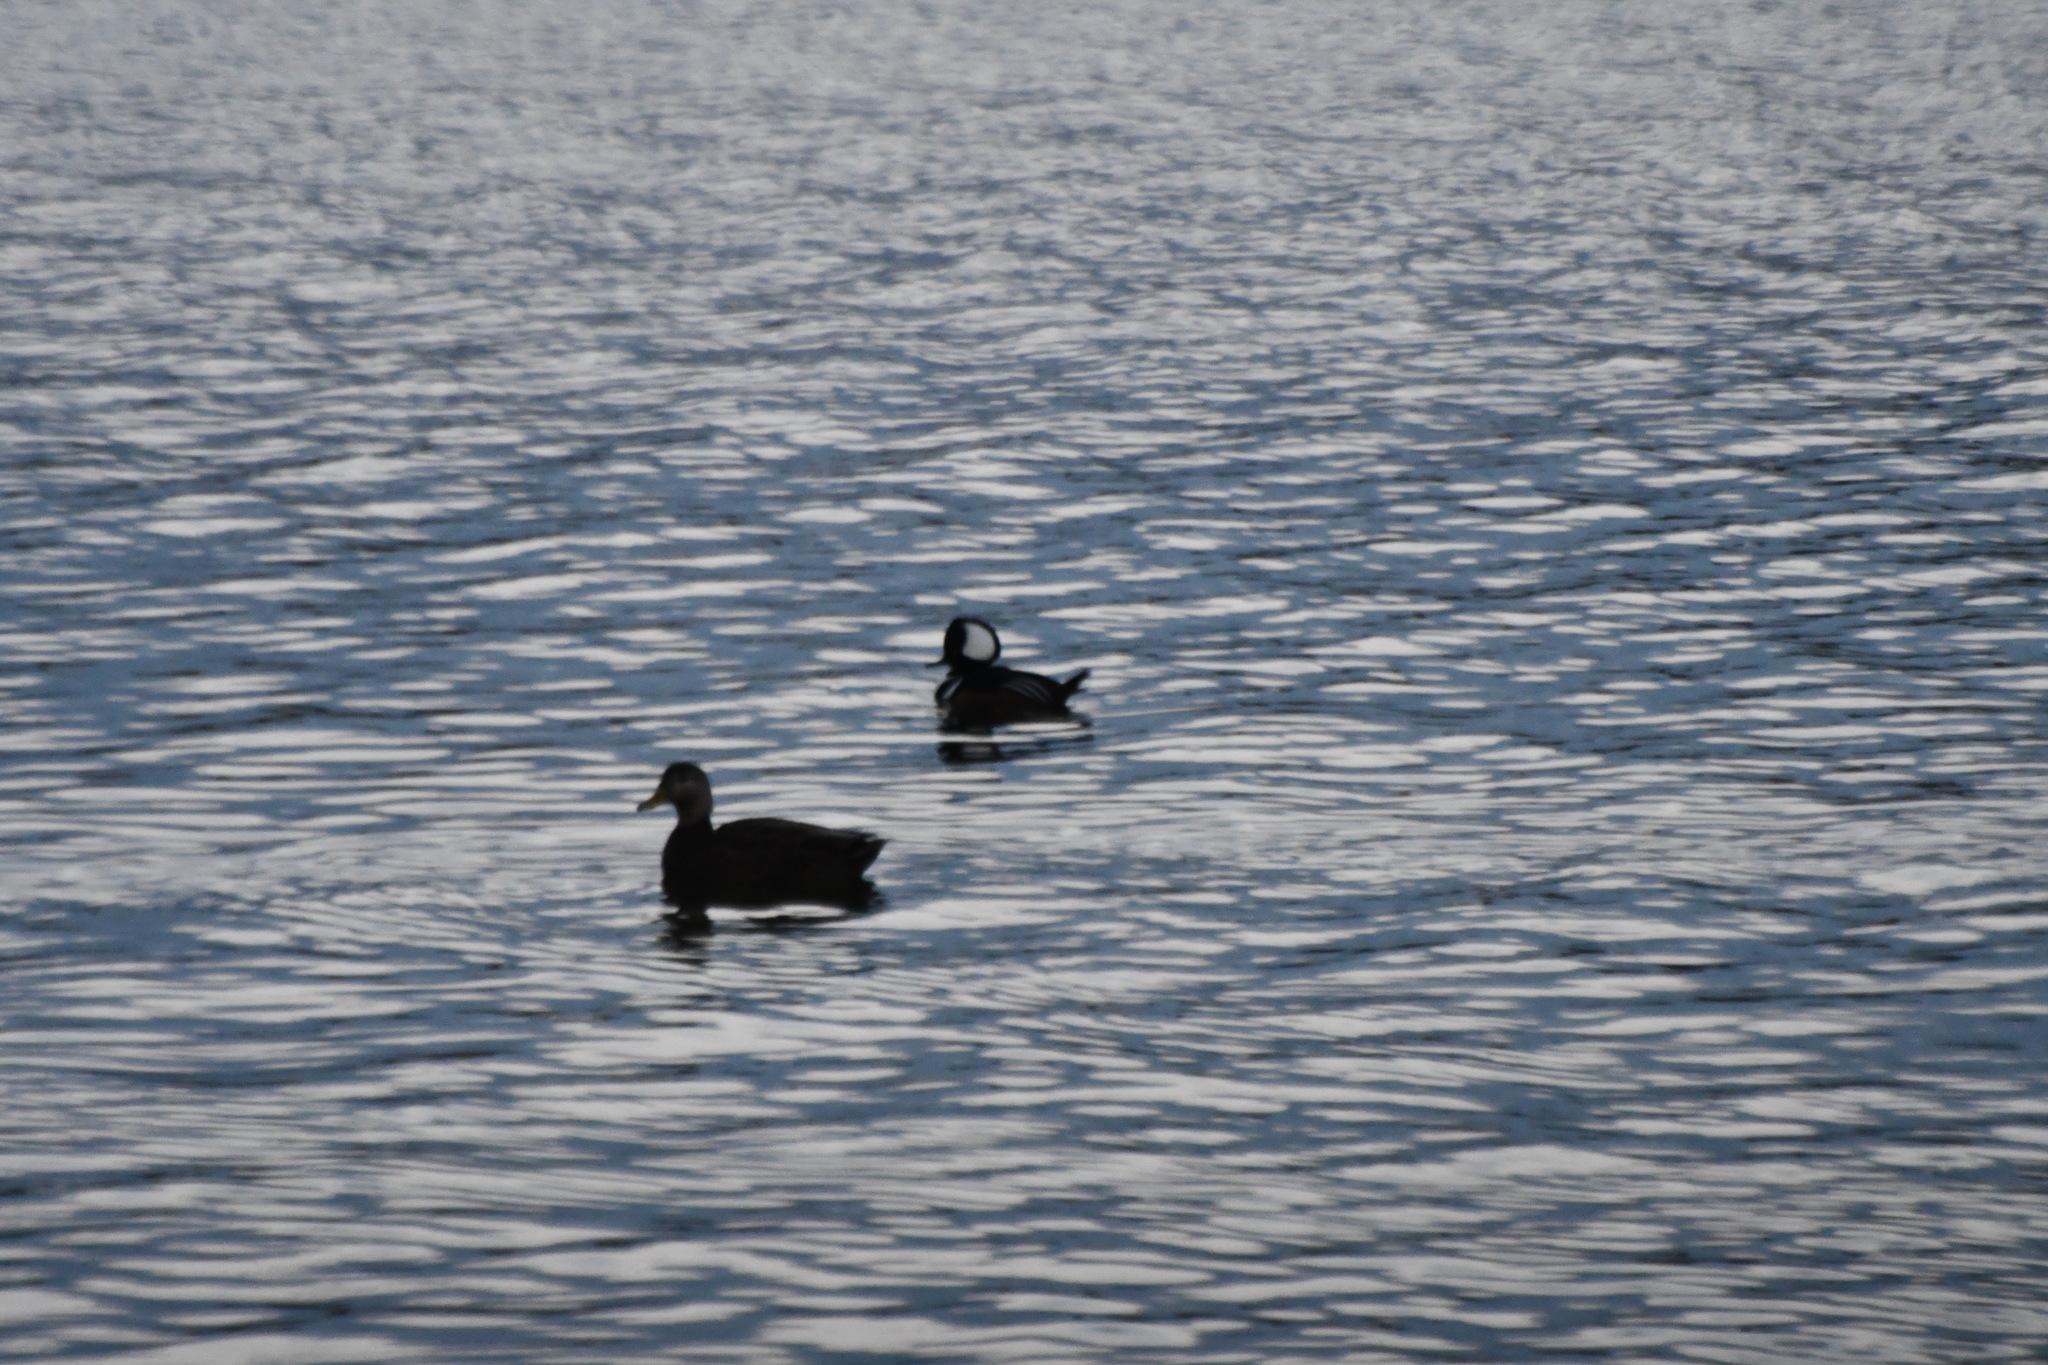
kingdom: Animalia
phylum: Chordata
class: Aves
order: Anseriformes
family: Anatidae
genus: Lophodytes
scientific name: Lophodytes cucullatus
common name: Hooded merganser
